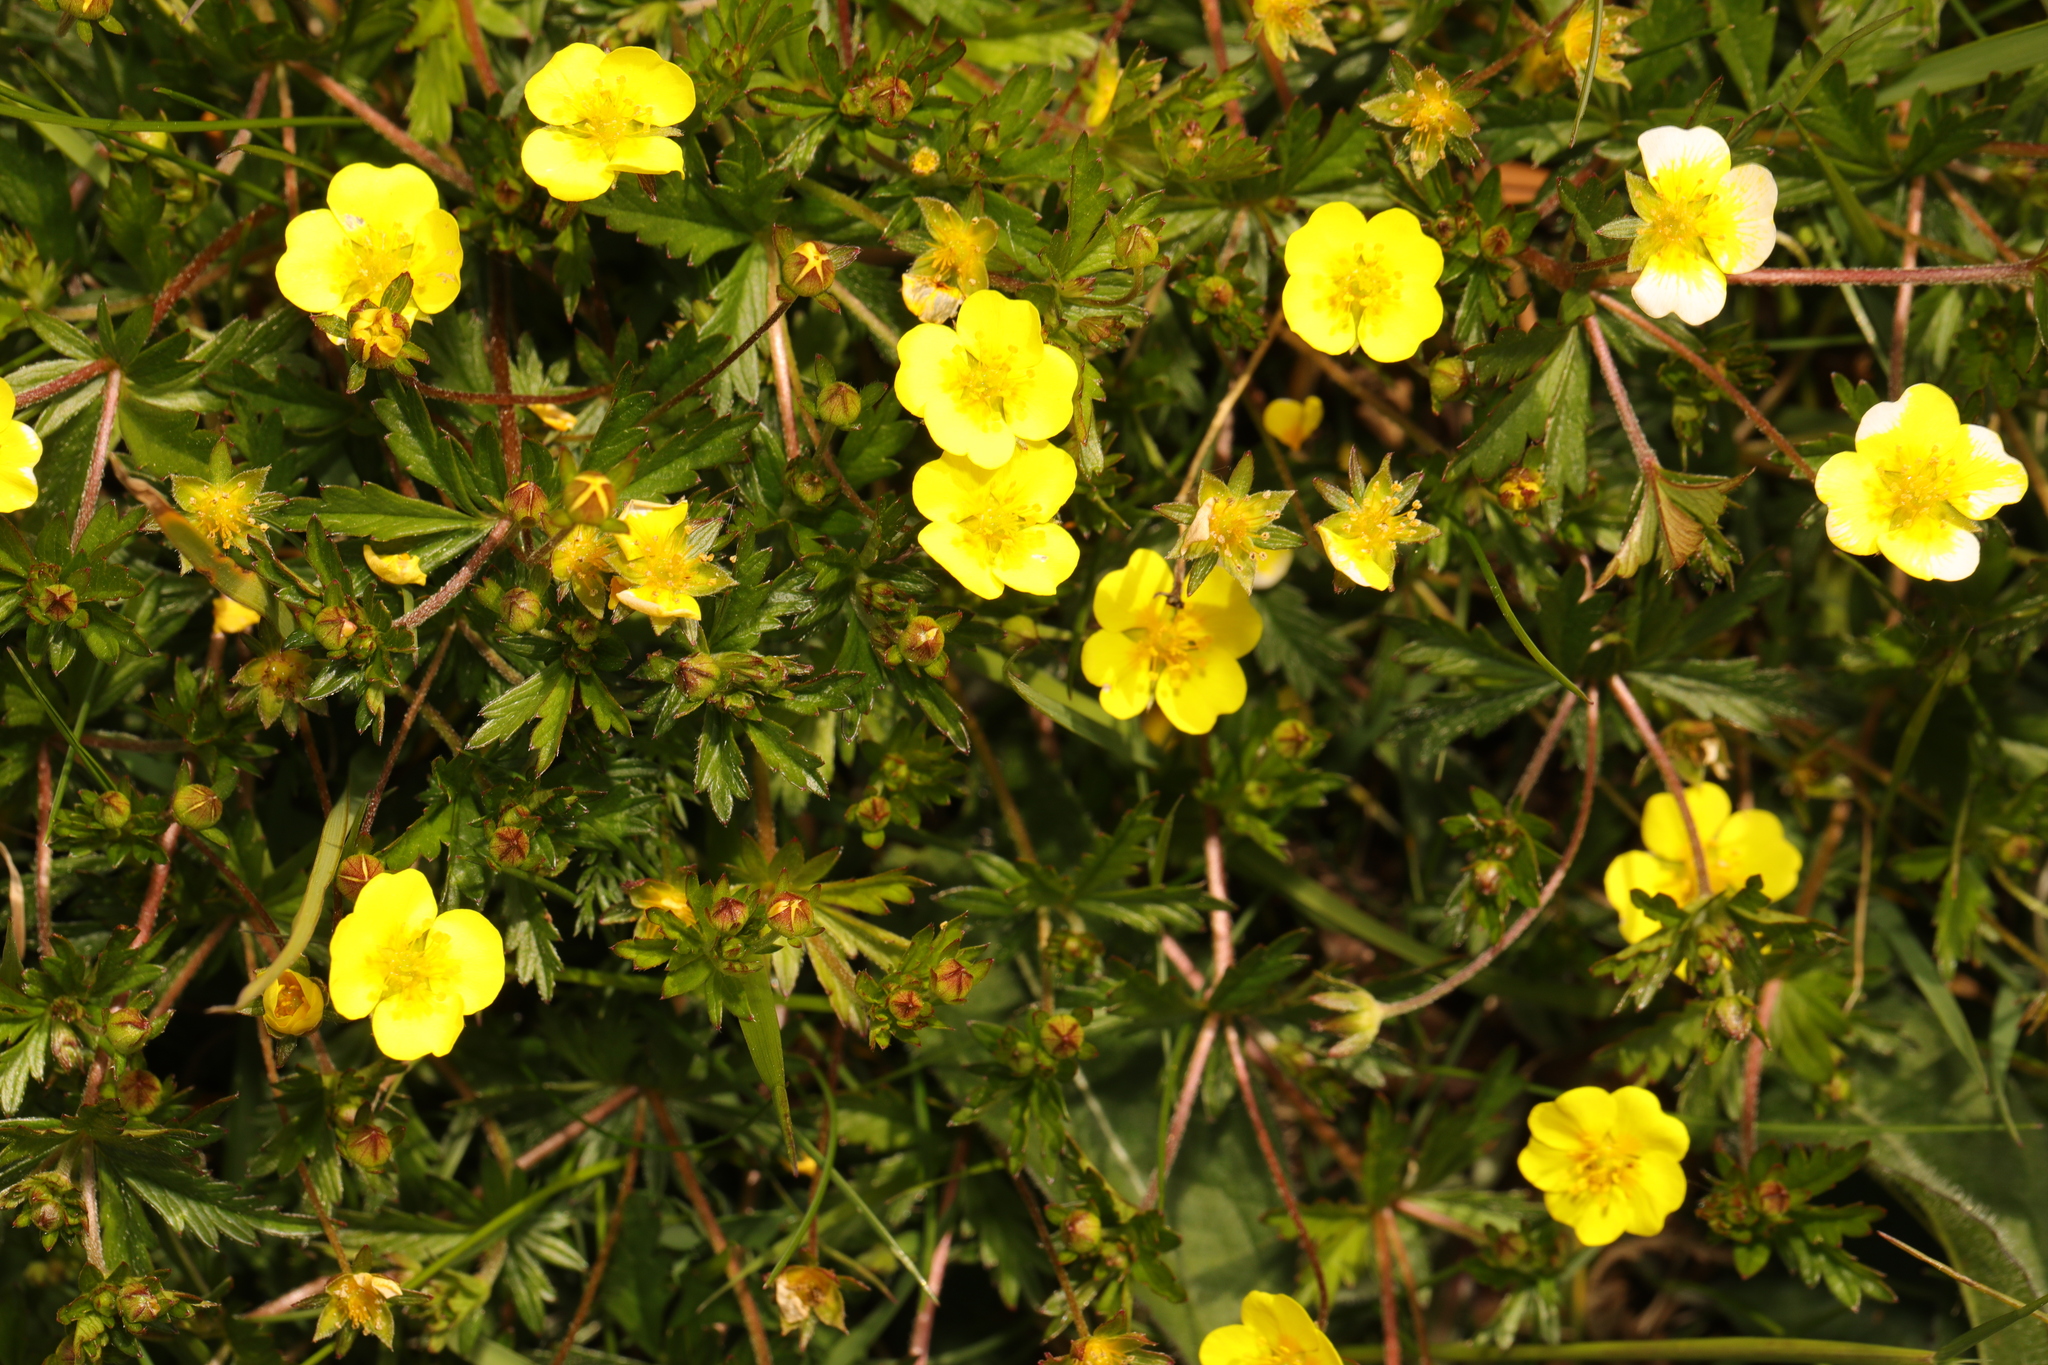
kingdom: Plantae
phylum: Tracheophyta
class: Magnoliopsida
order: Rosales
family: Rosaceae
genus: Potentilla
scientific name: Potentilla erecta
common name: Tormentil
